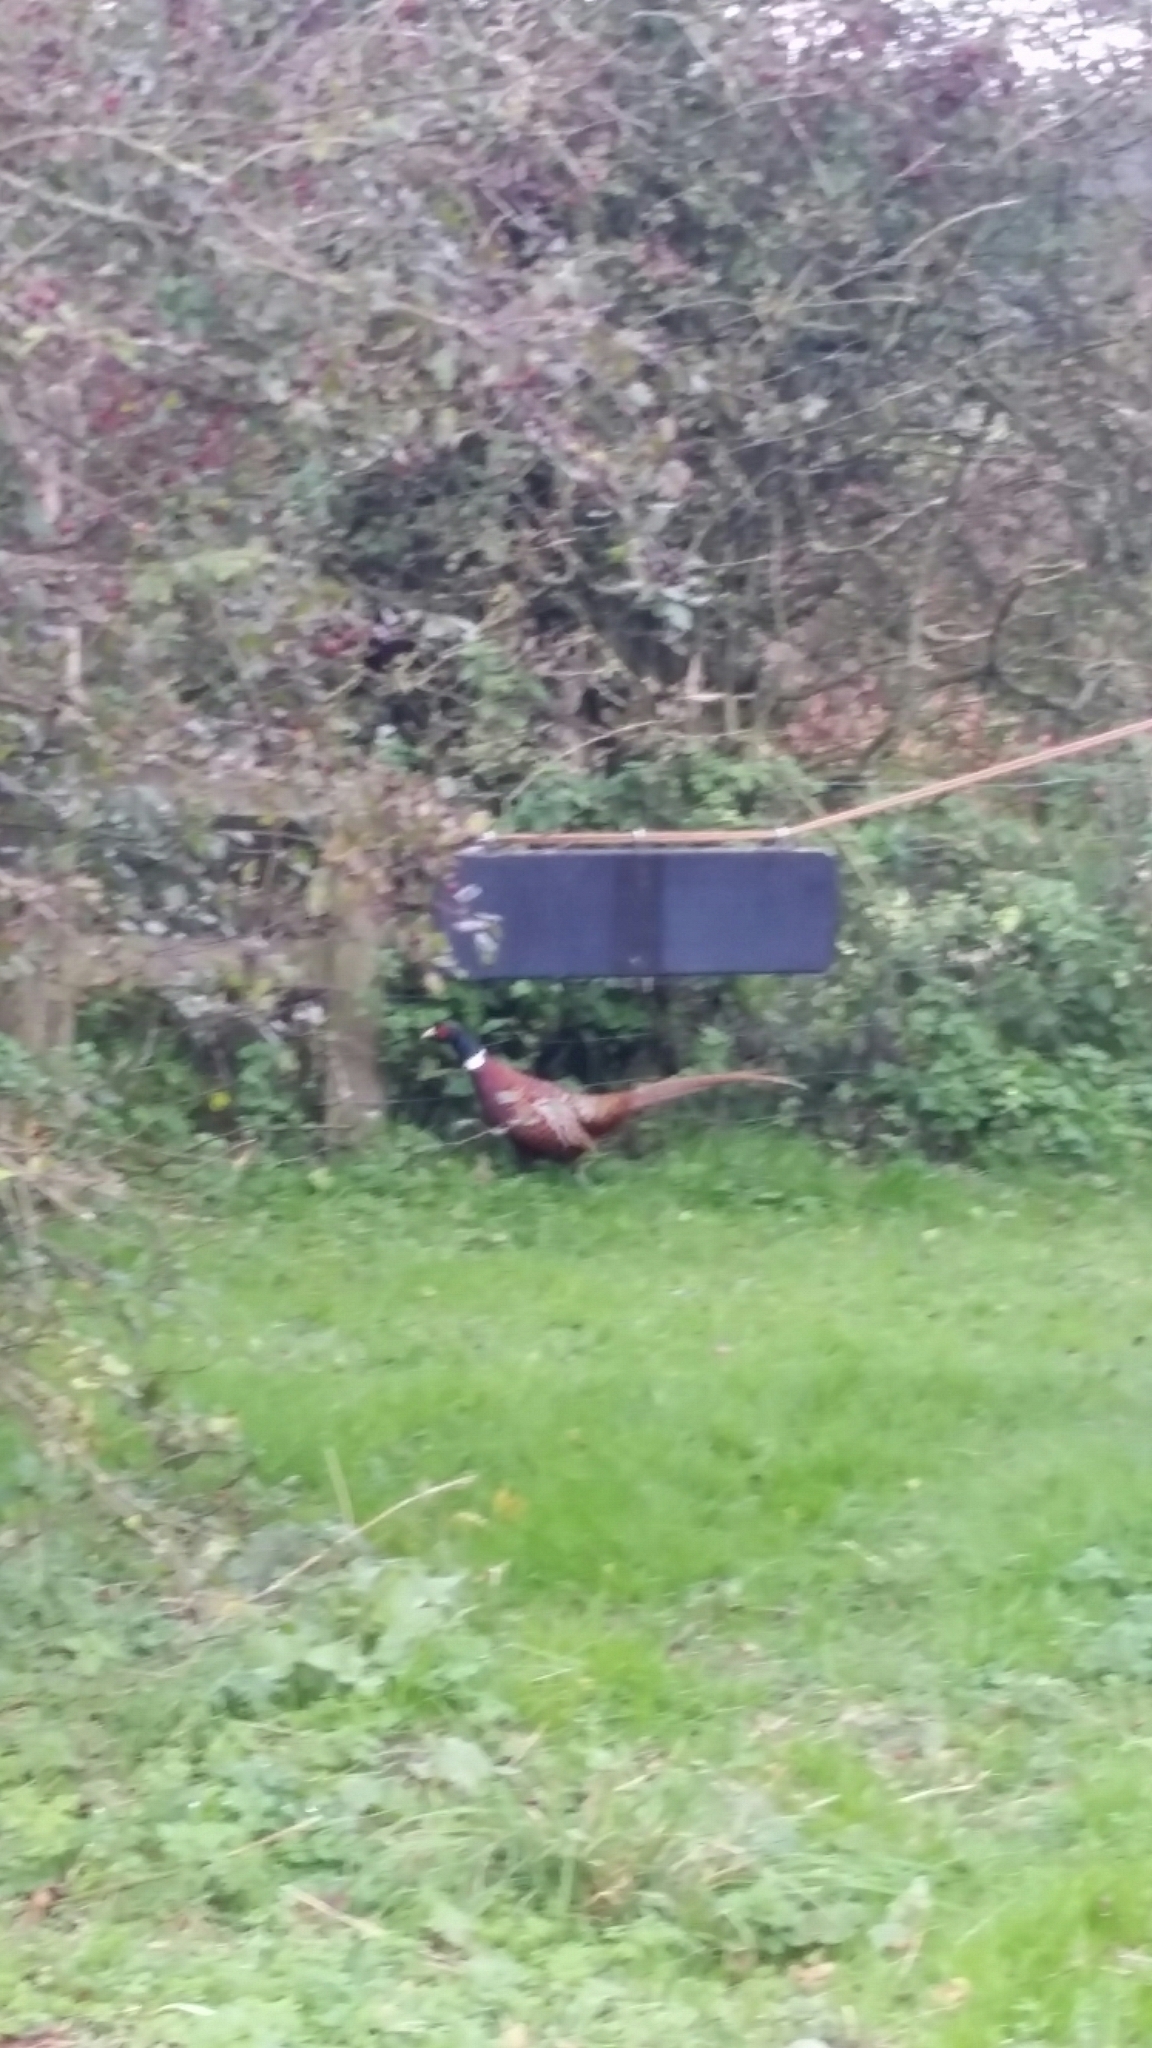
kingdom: Animalia
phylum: Chordata
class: Aves
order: Galliformes
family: Phasianidae
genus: Phasianus
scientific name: Phasianus colchicus
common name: Common pheasant
